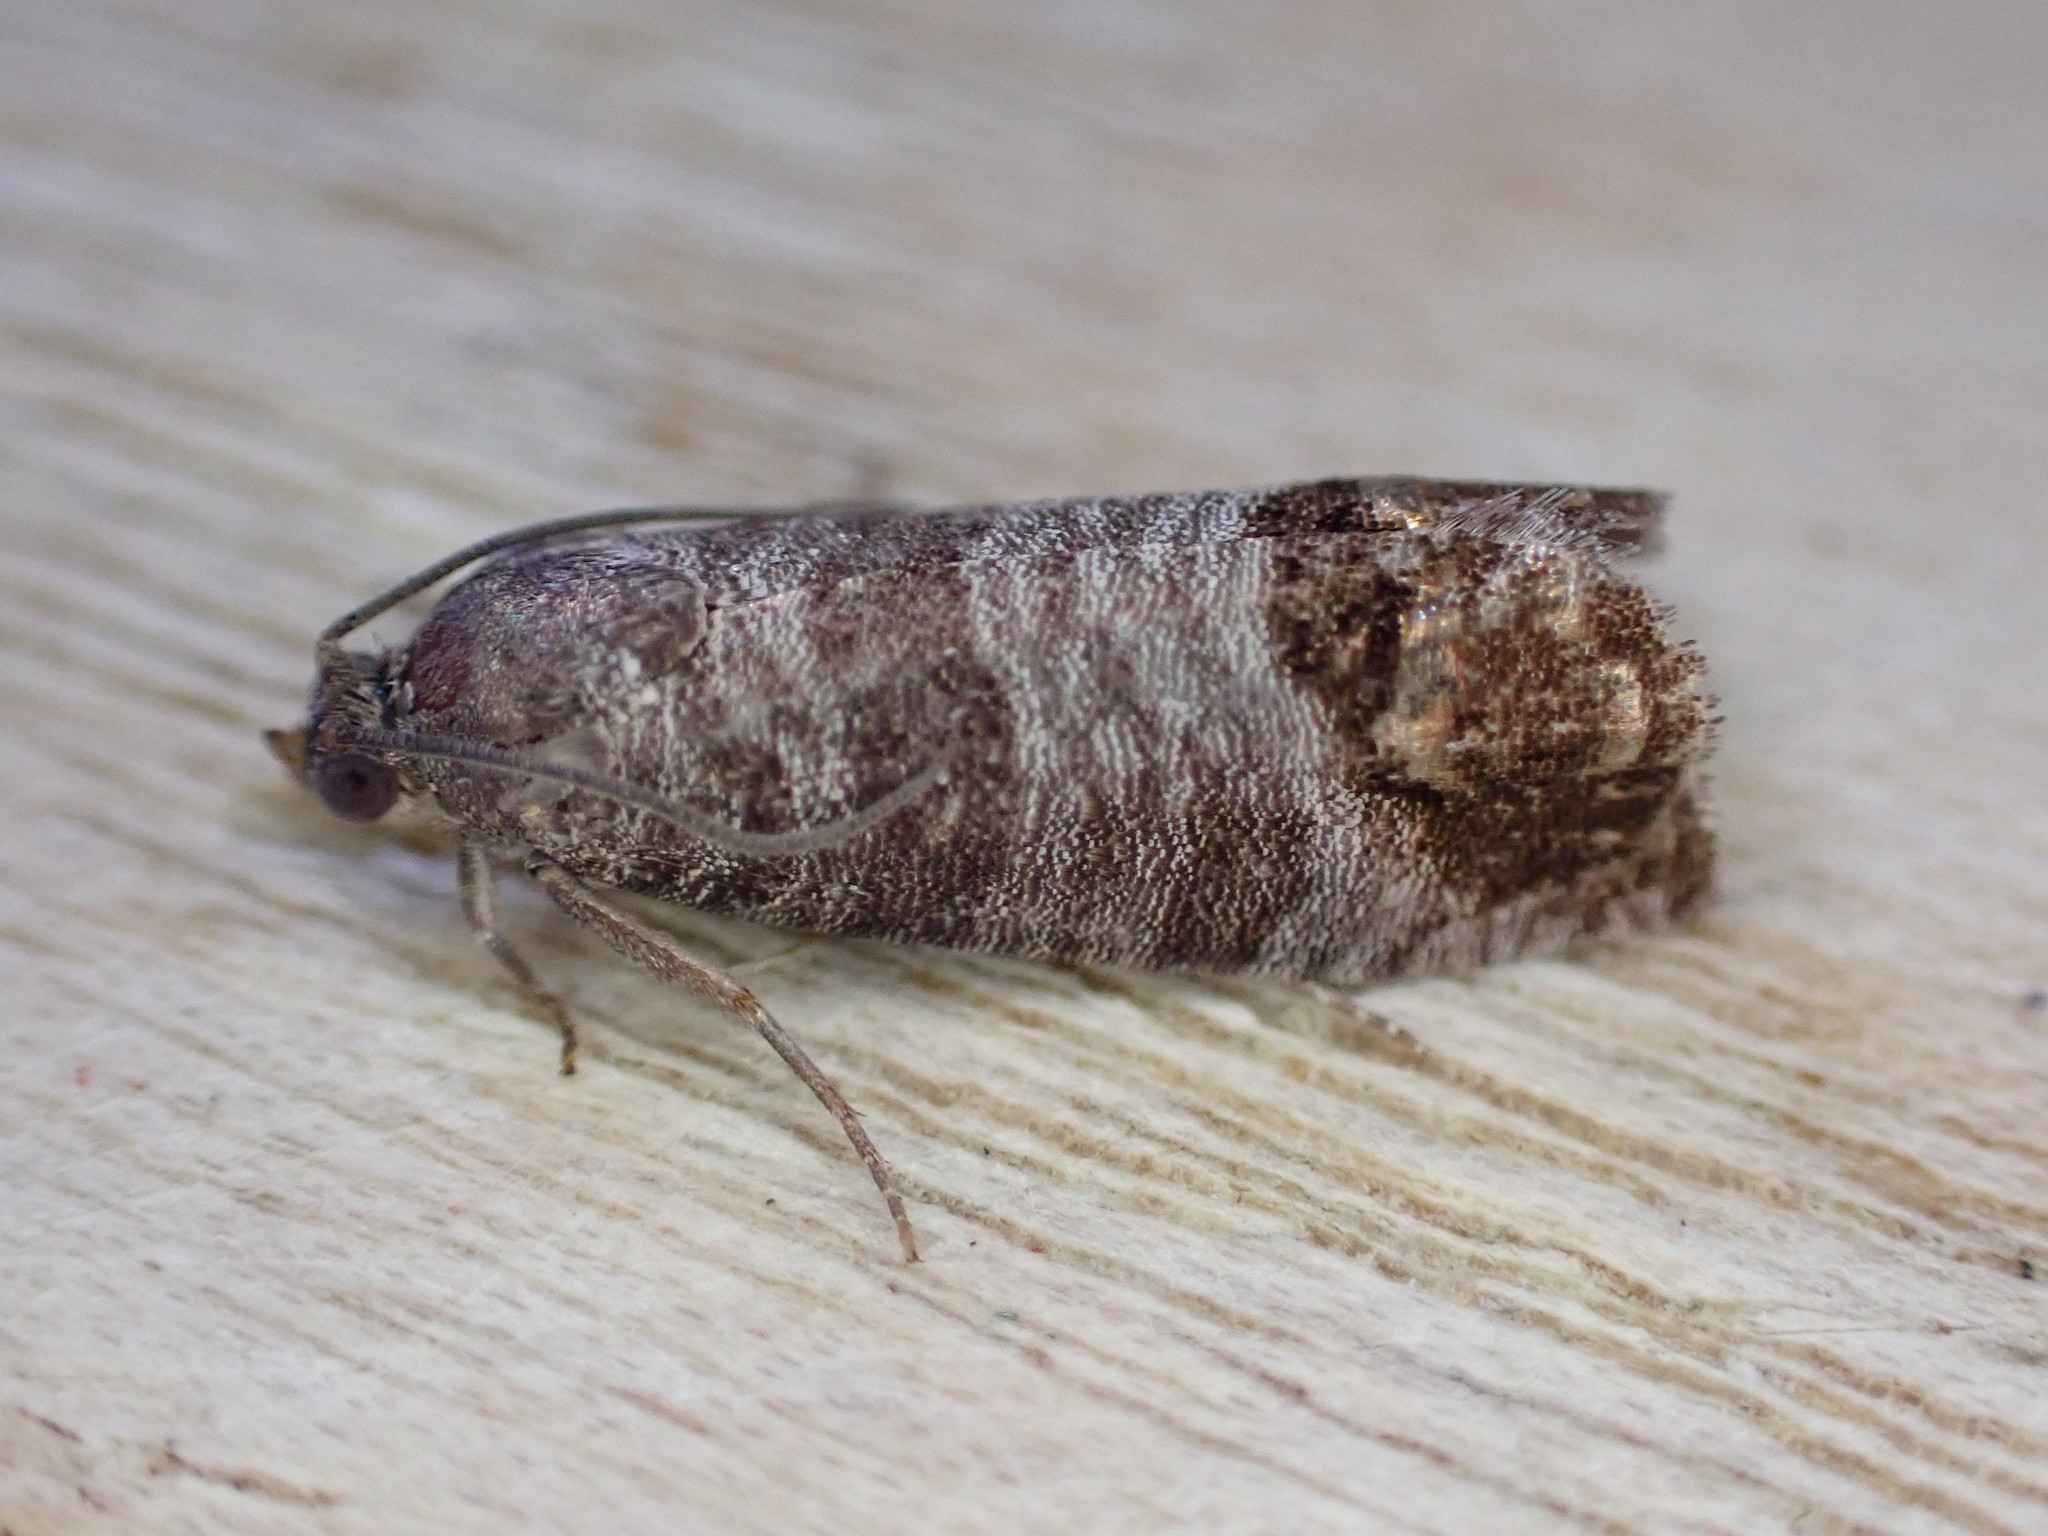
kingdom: Animalia
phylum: Arthropoda
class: Insecta
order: Lepidoptera
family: Tortricidae
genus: Cydia
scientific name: Cydia pomonella
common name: Codling moth
